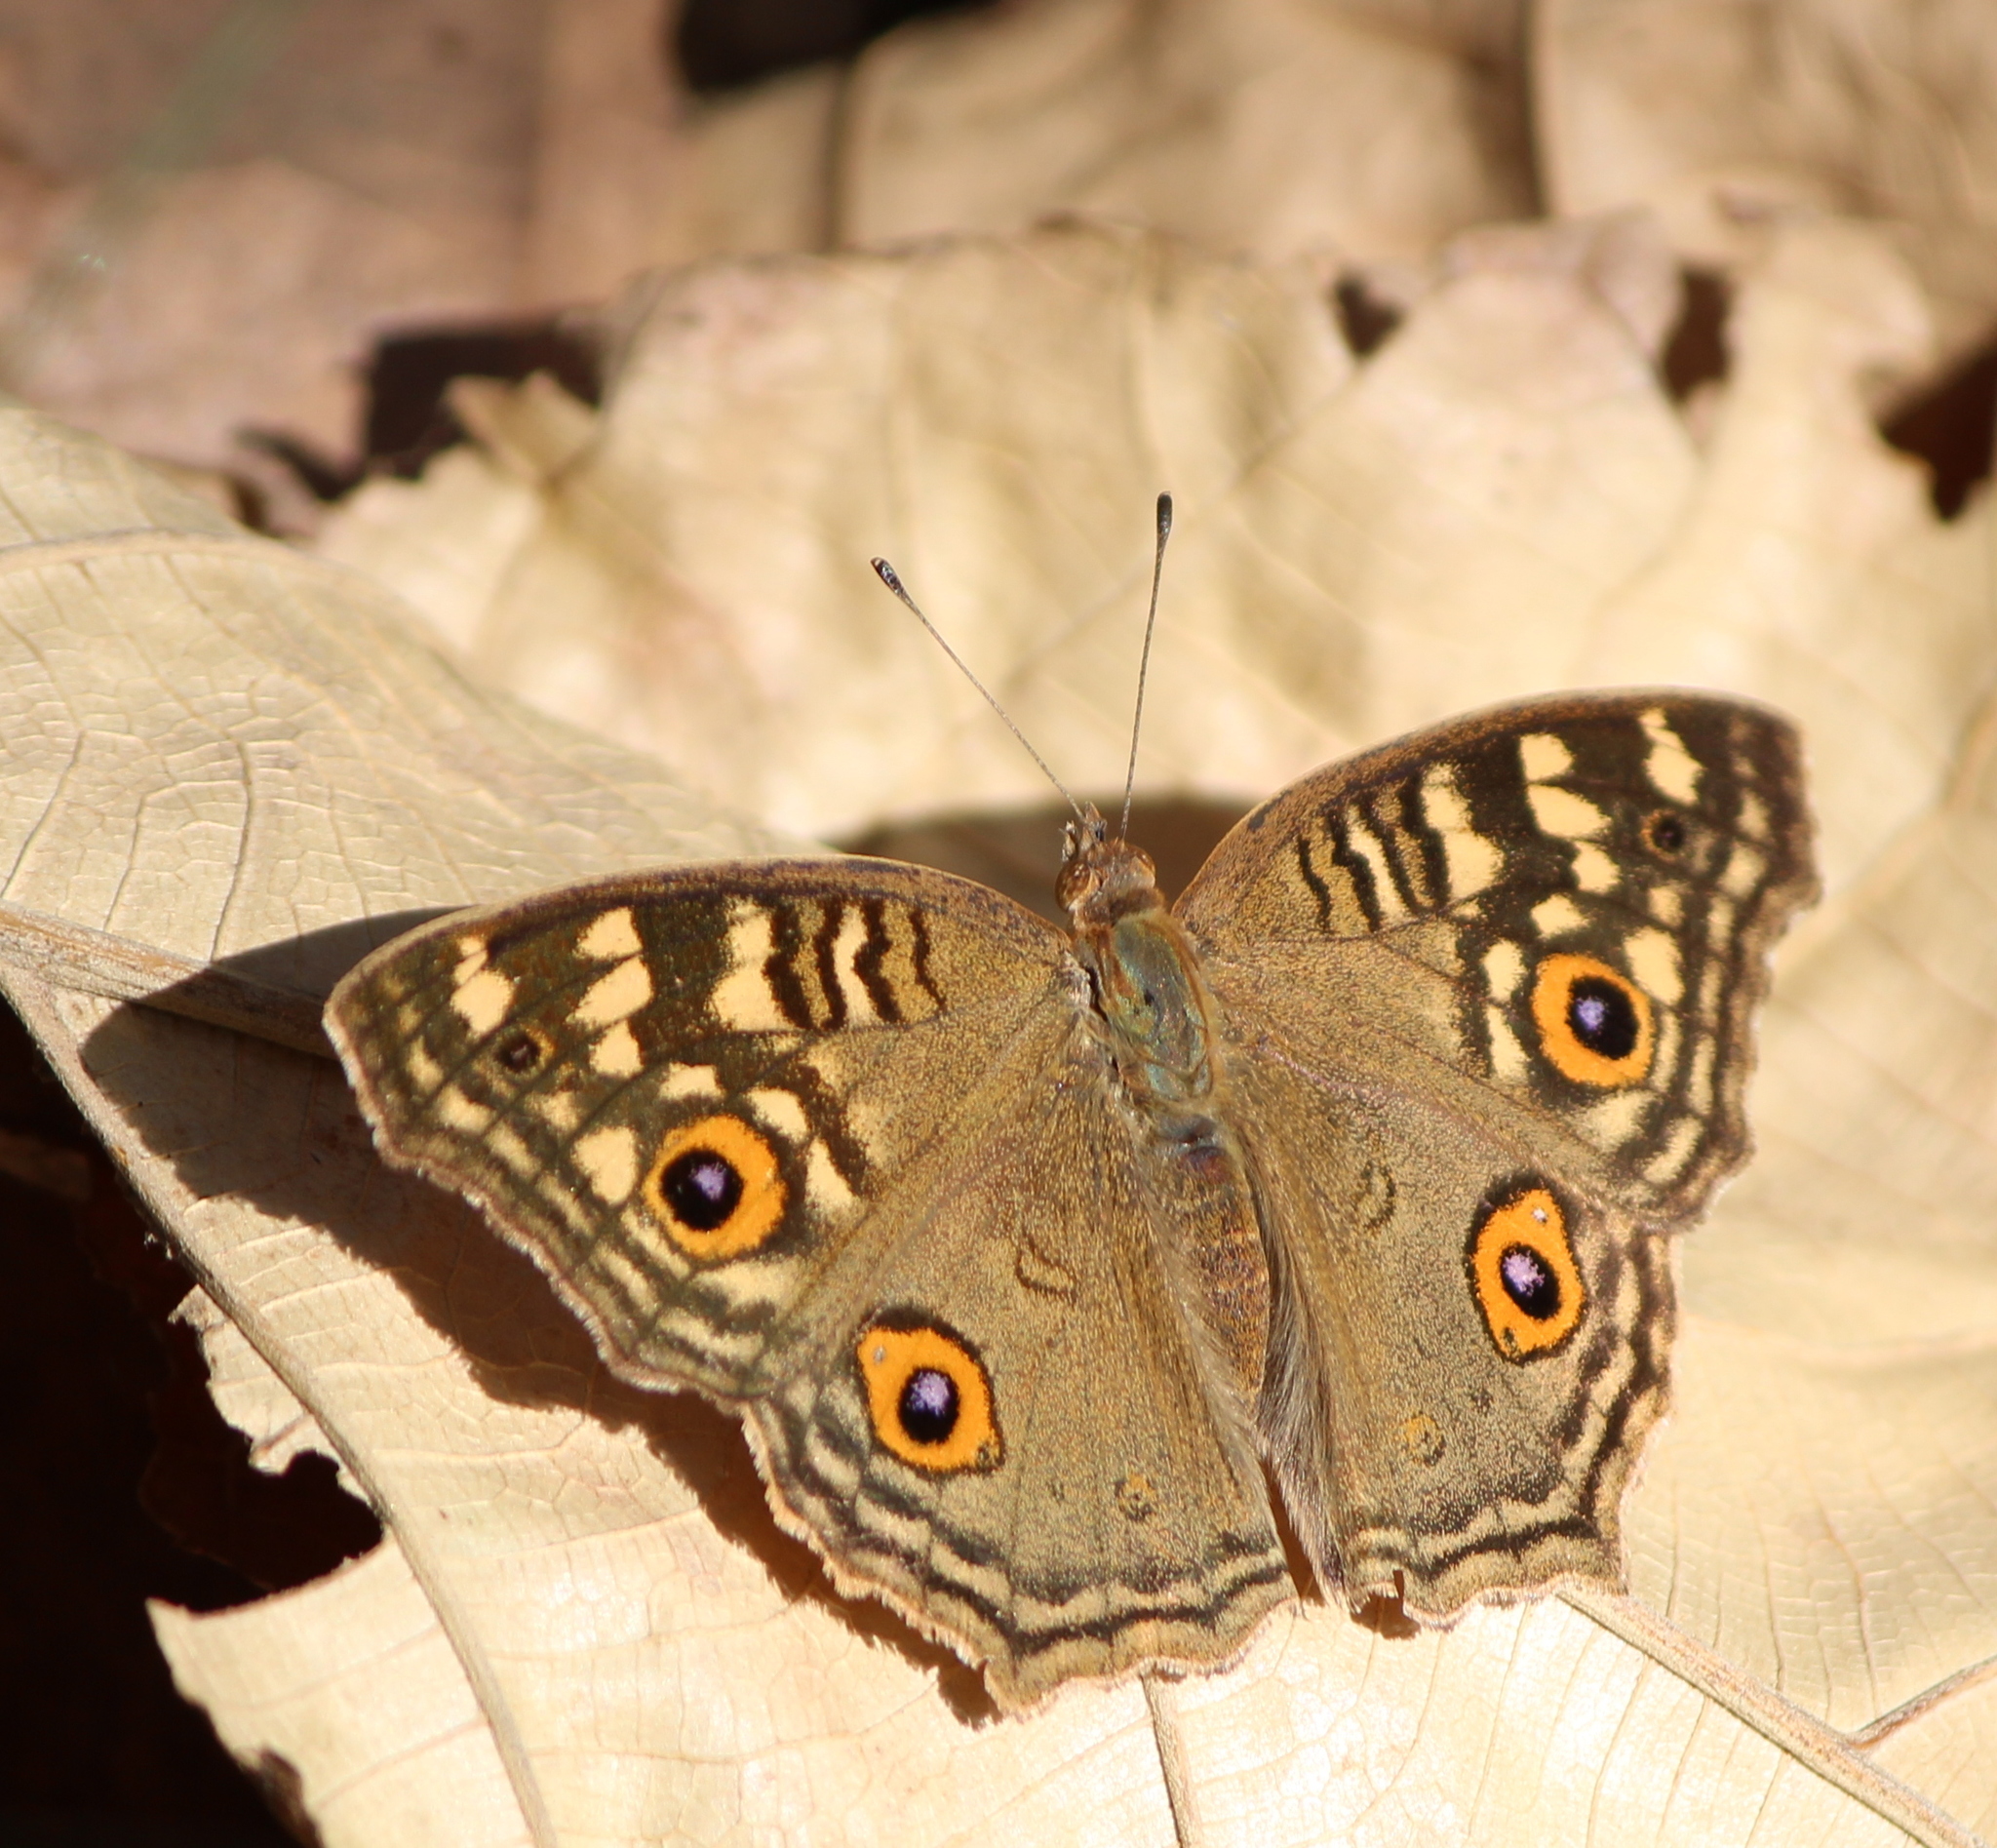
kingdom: Animalia
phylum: Arthropoda
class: Insecta
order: Lepidoptera
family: Nymphalidae
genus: Junonia
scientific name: Junonia lemonias
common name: Lemon pansy
